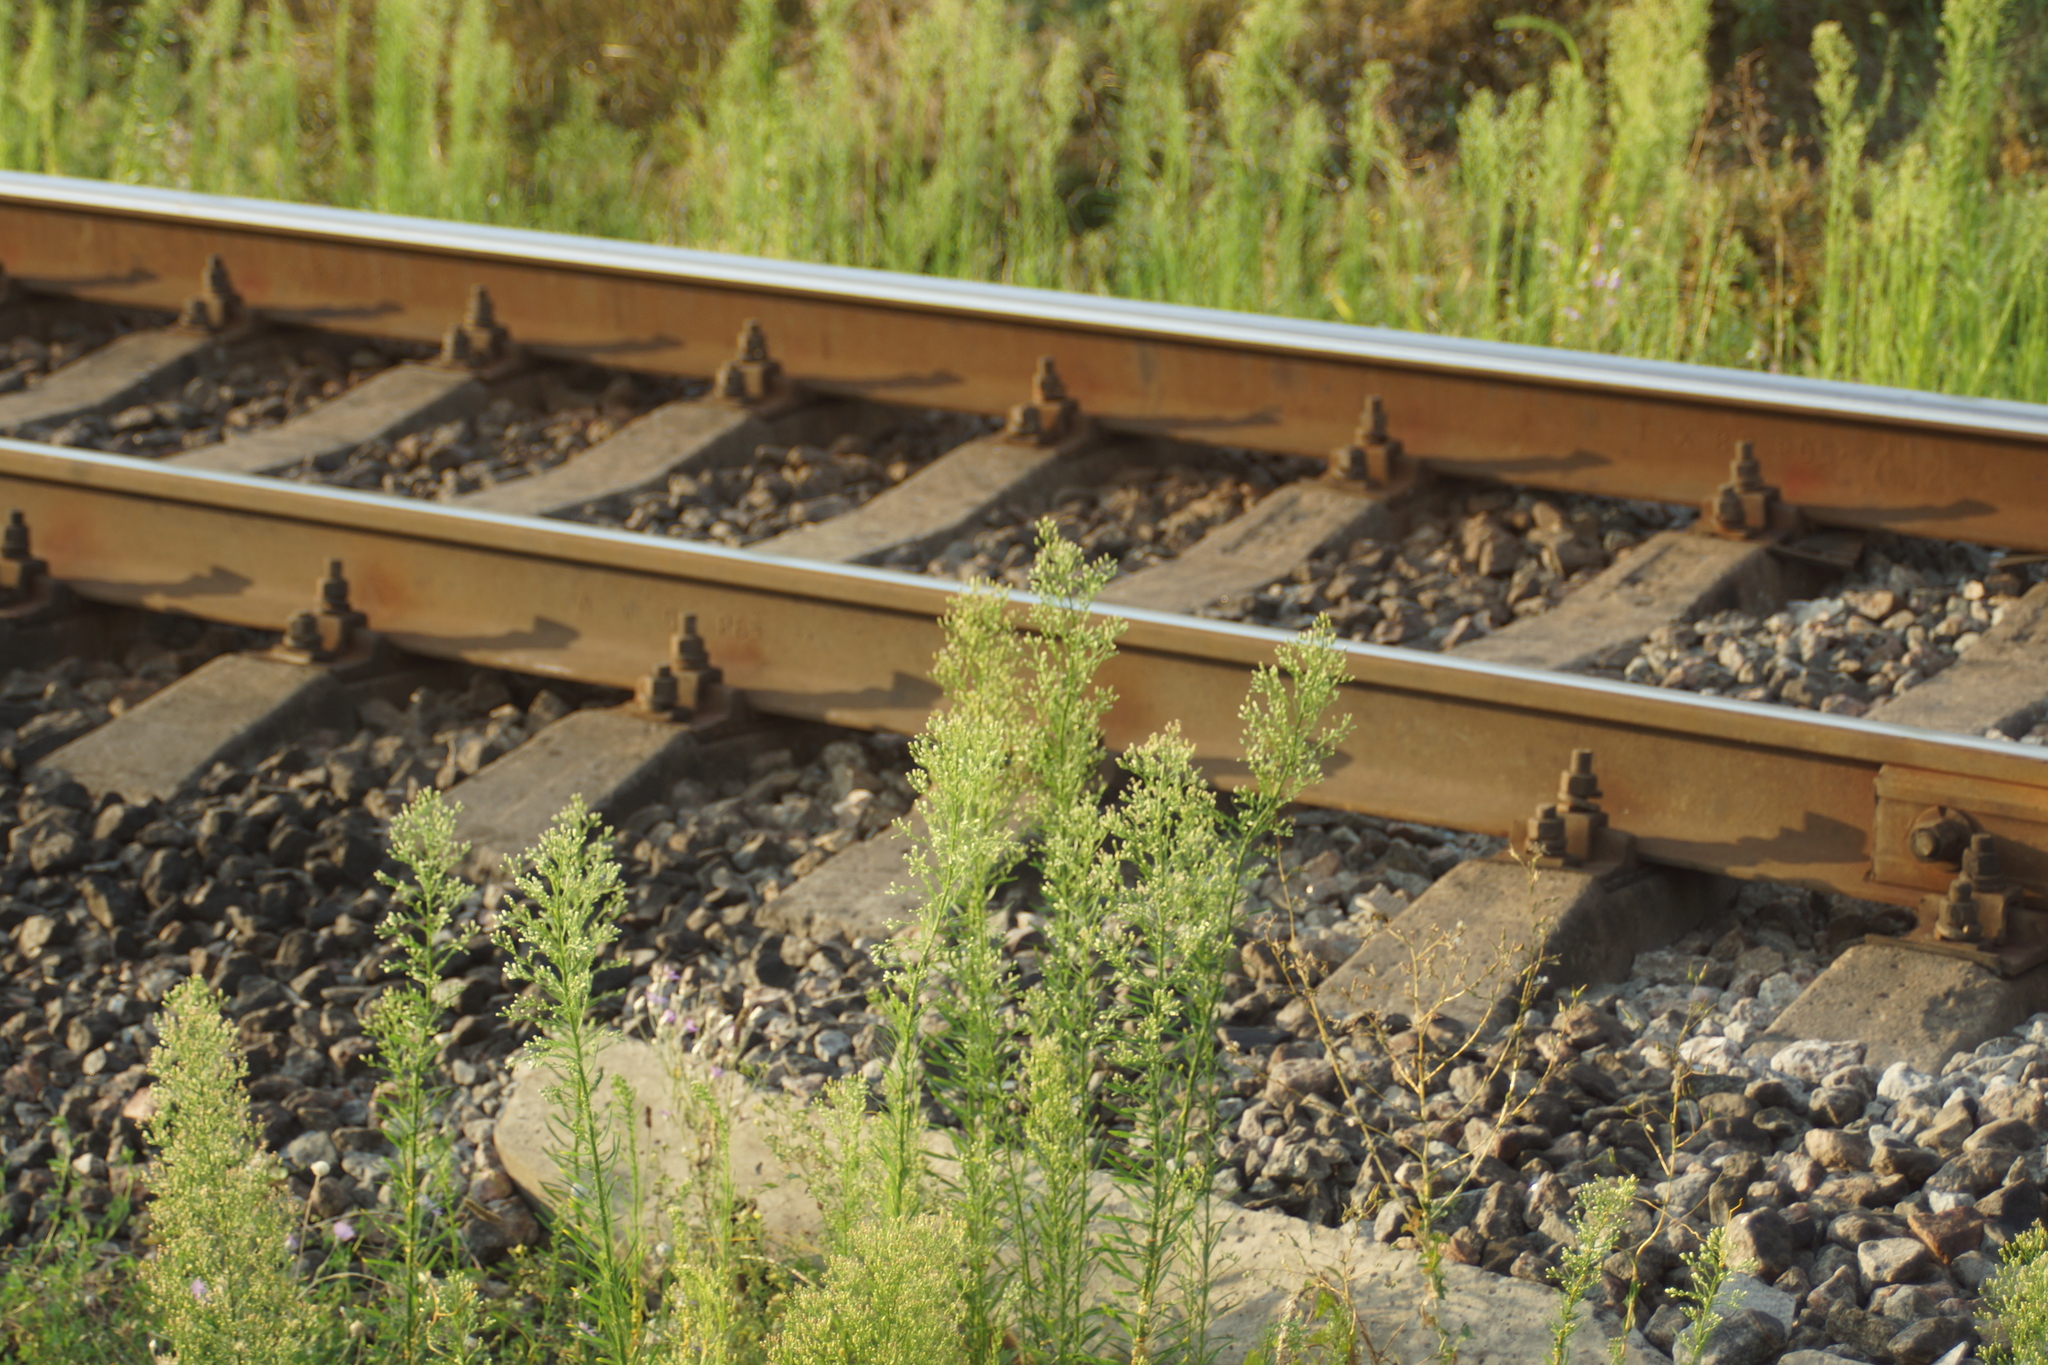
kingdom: Plantae
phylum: Tracheophyta
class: Magnoliopsida
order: Asterales
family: Asteraceae
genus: Erigeron
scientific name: Erigeron canadensis
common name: Canadian fleabane
